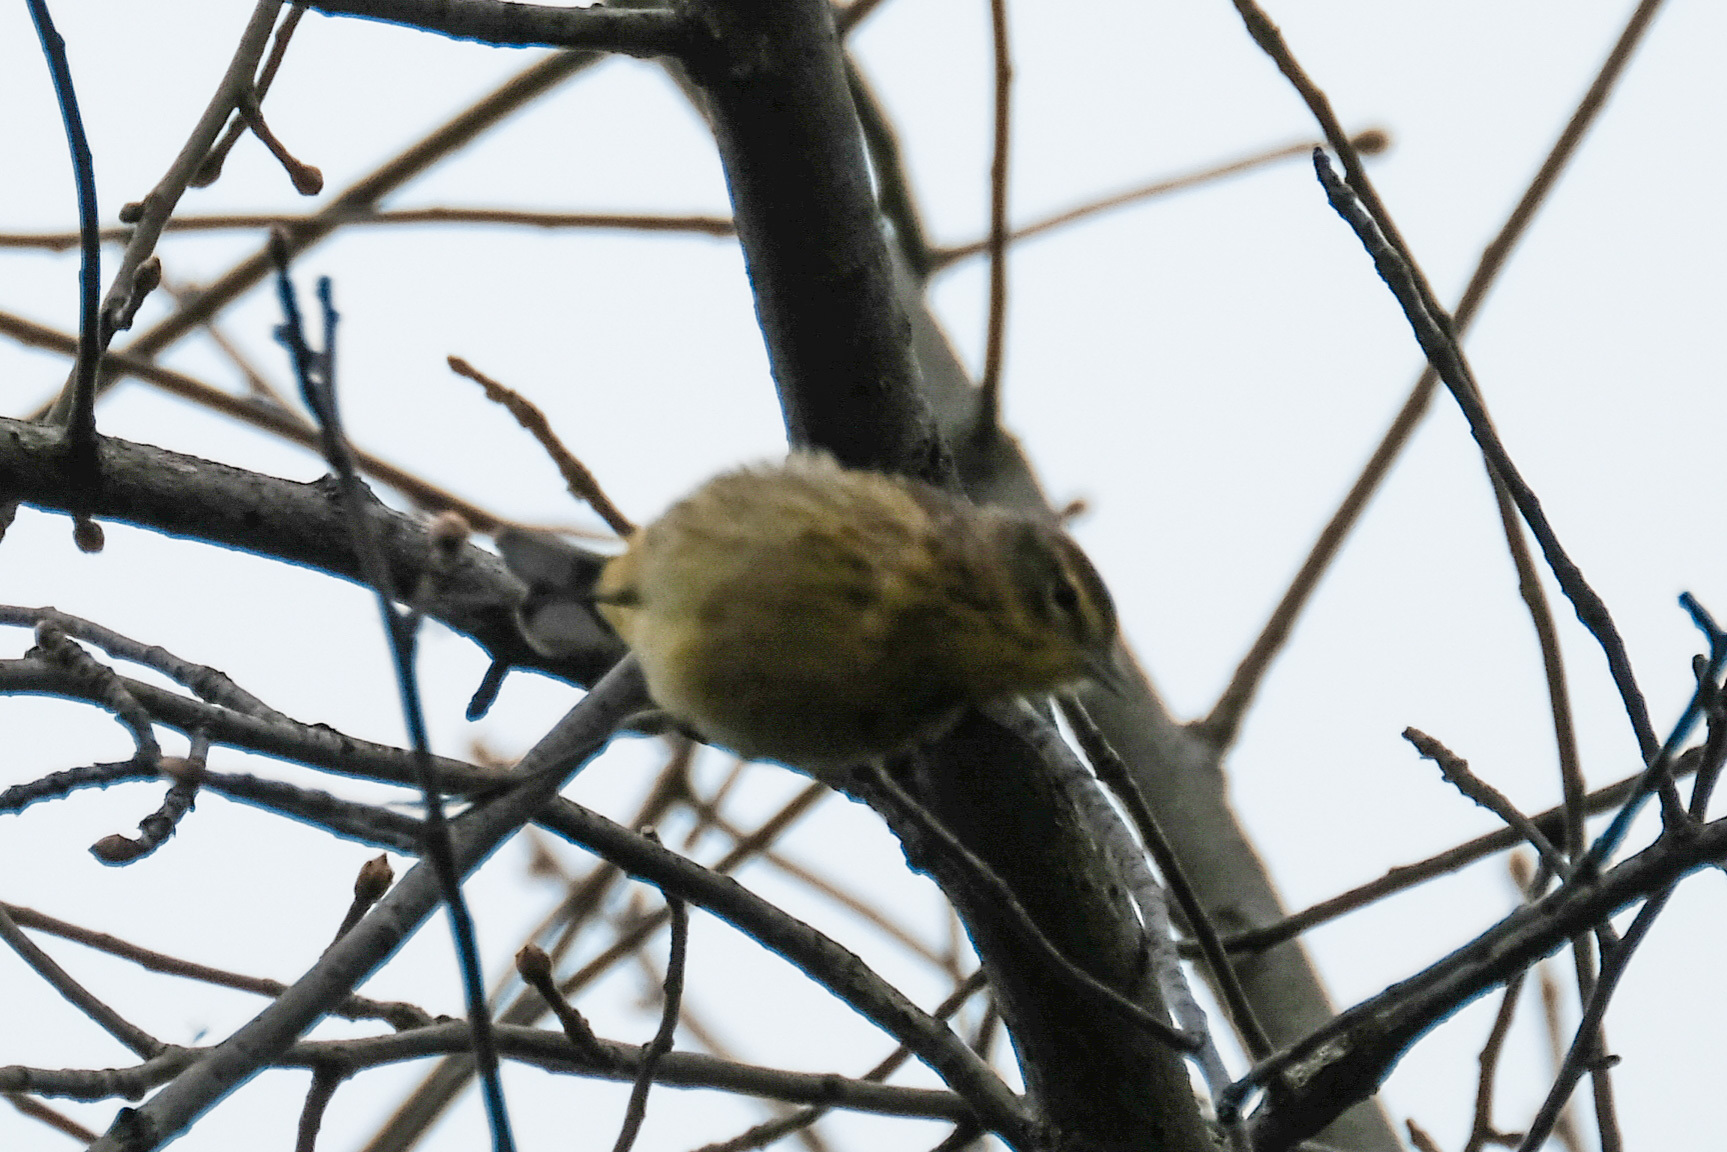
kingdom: Animalia
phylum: Chordata
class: Aves
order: Passeriformes
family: Parulidae
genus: Setophaga
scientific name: Setophaga palmarum
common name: Palm warbler
